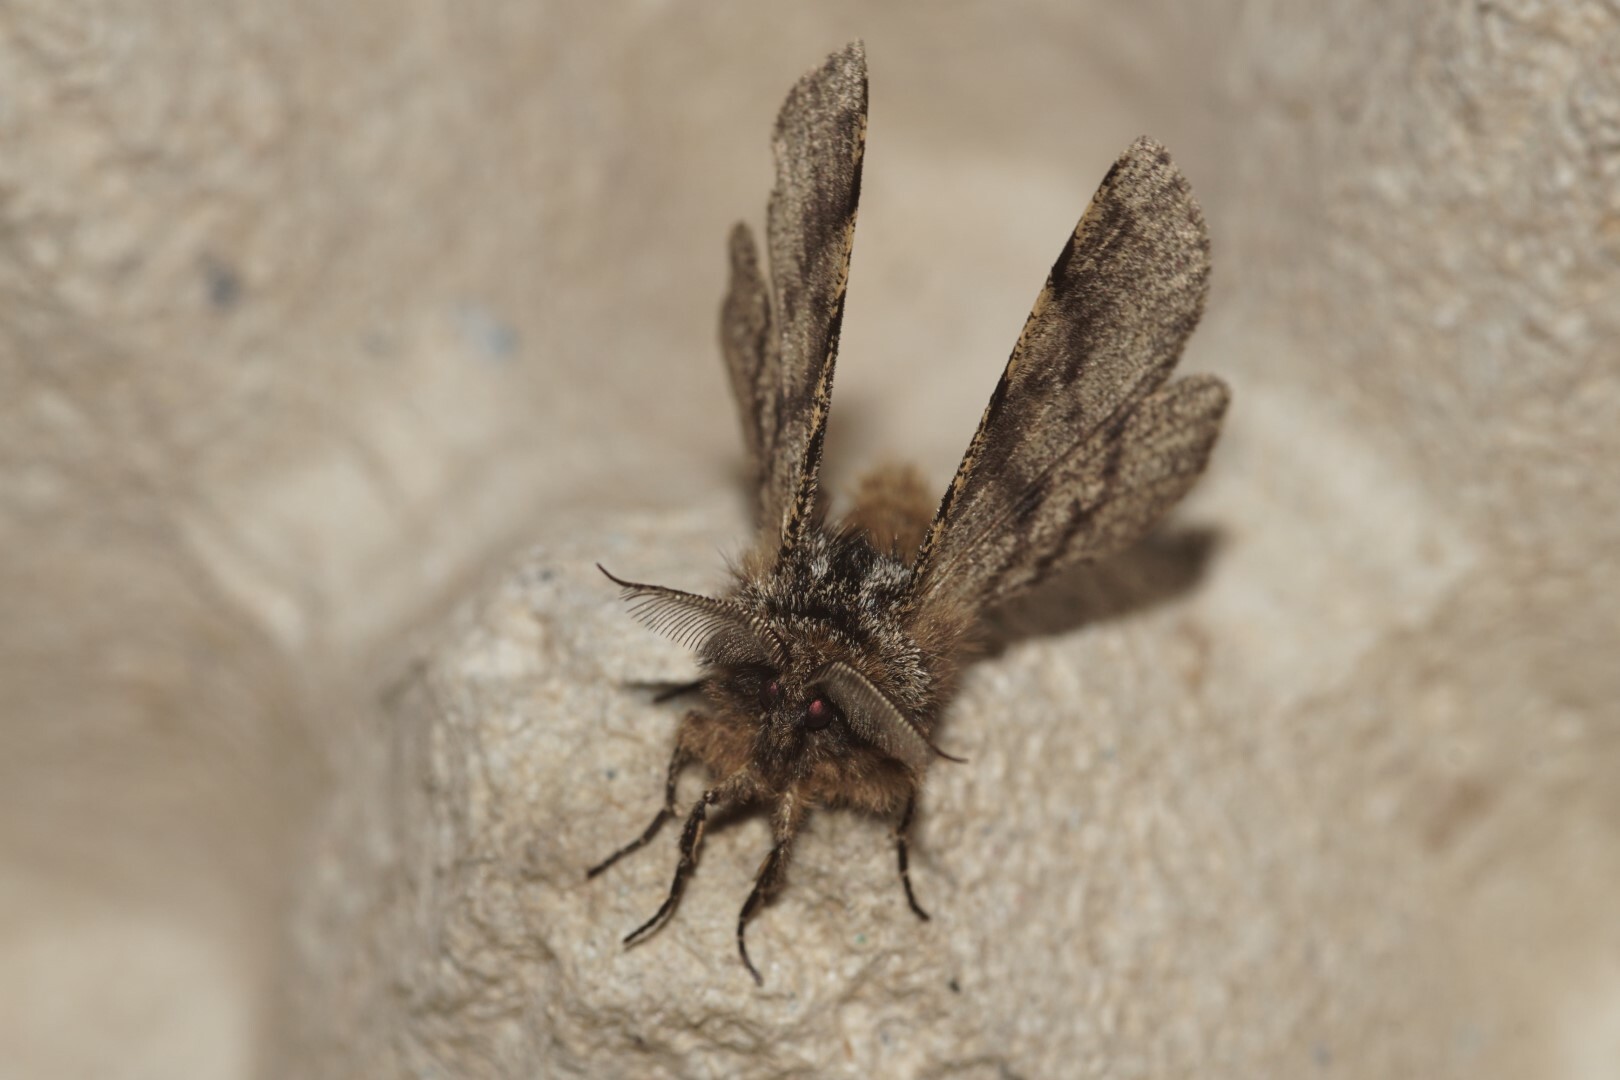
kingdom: Animalia
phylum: Arthropoda
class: Insecta
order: Lepidoptera
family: Geometridae
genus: Lycia
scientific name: Lycia hirtaria
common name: Brindled beauty
